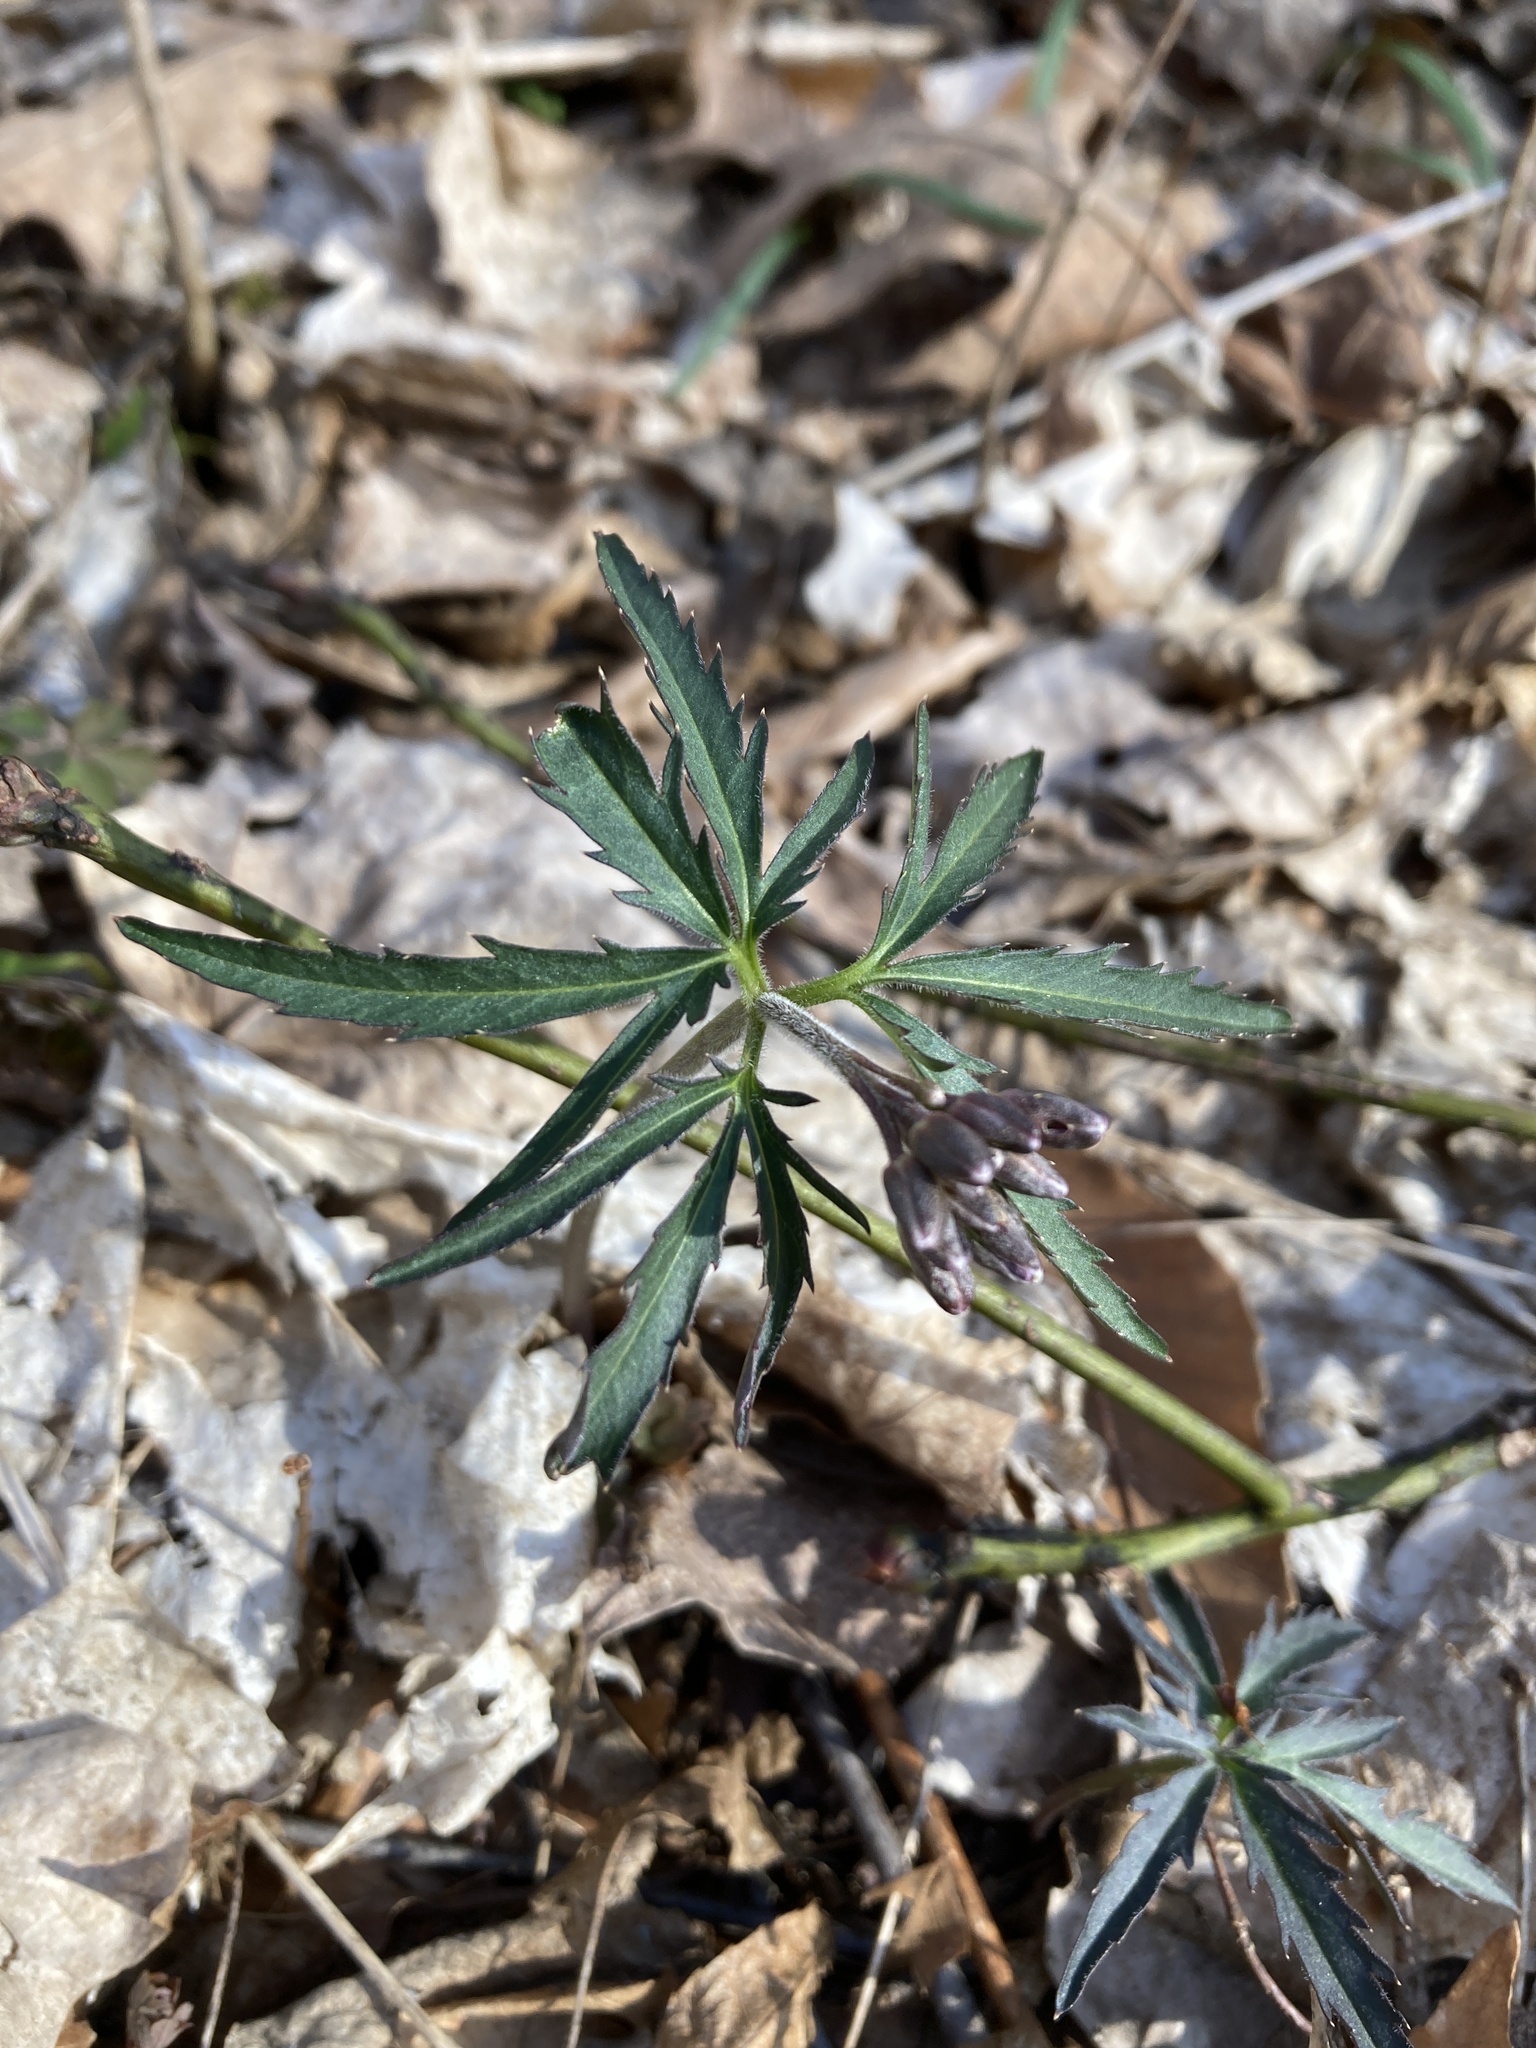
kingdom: Plantae
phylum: Tracheophyta
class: Magnoliopsida
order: Brassicales
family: Brassicaceae
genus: Cardamine
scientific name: Cardamine concatenata
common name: Cut-leaf toothcup
